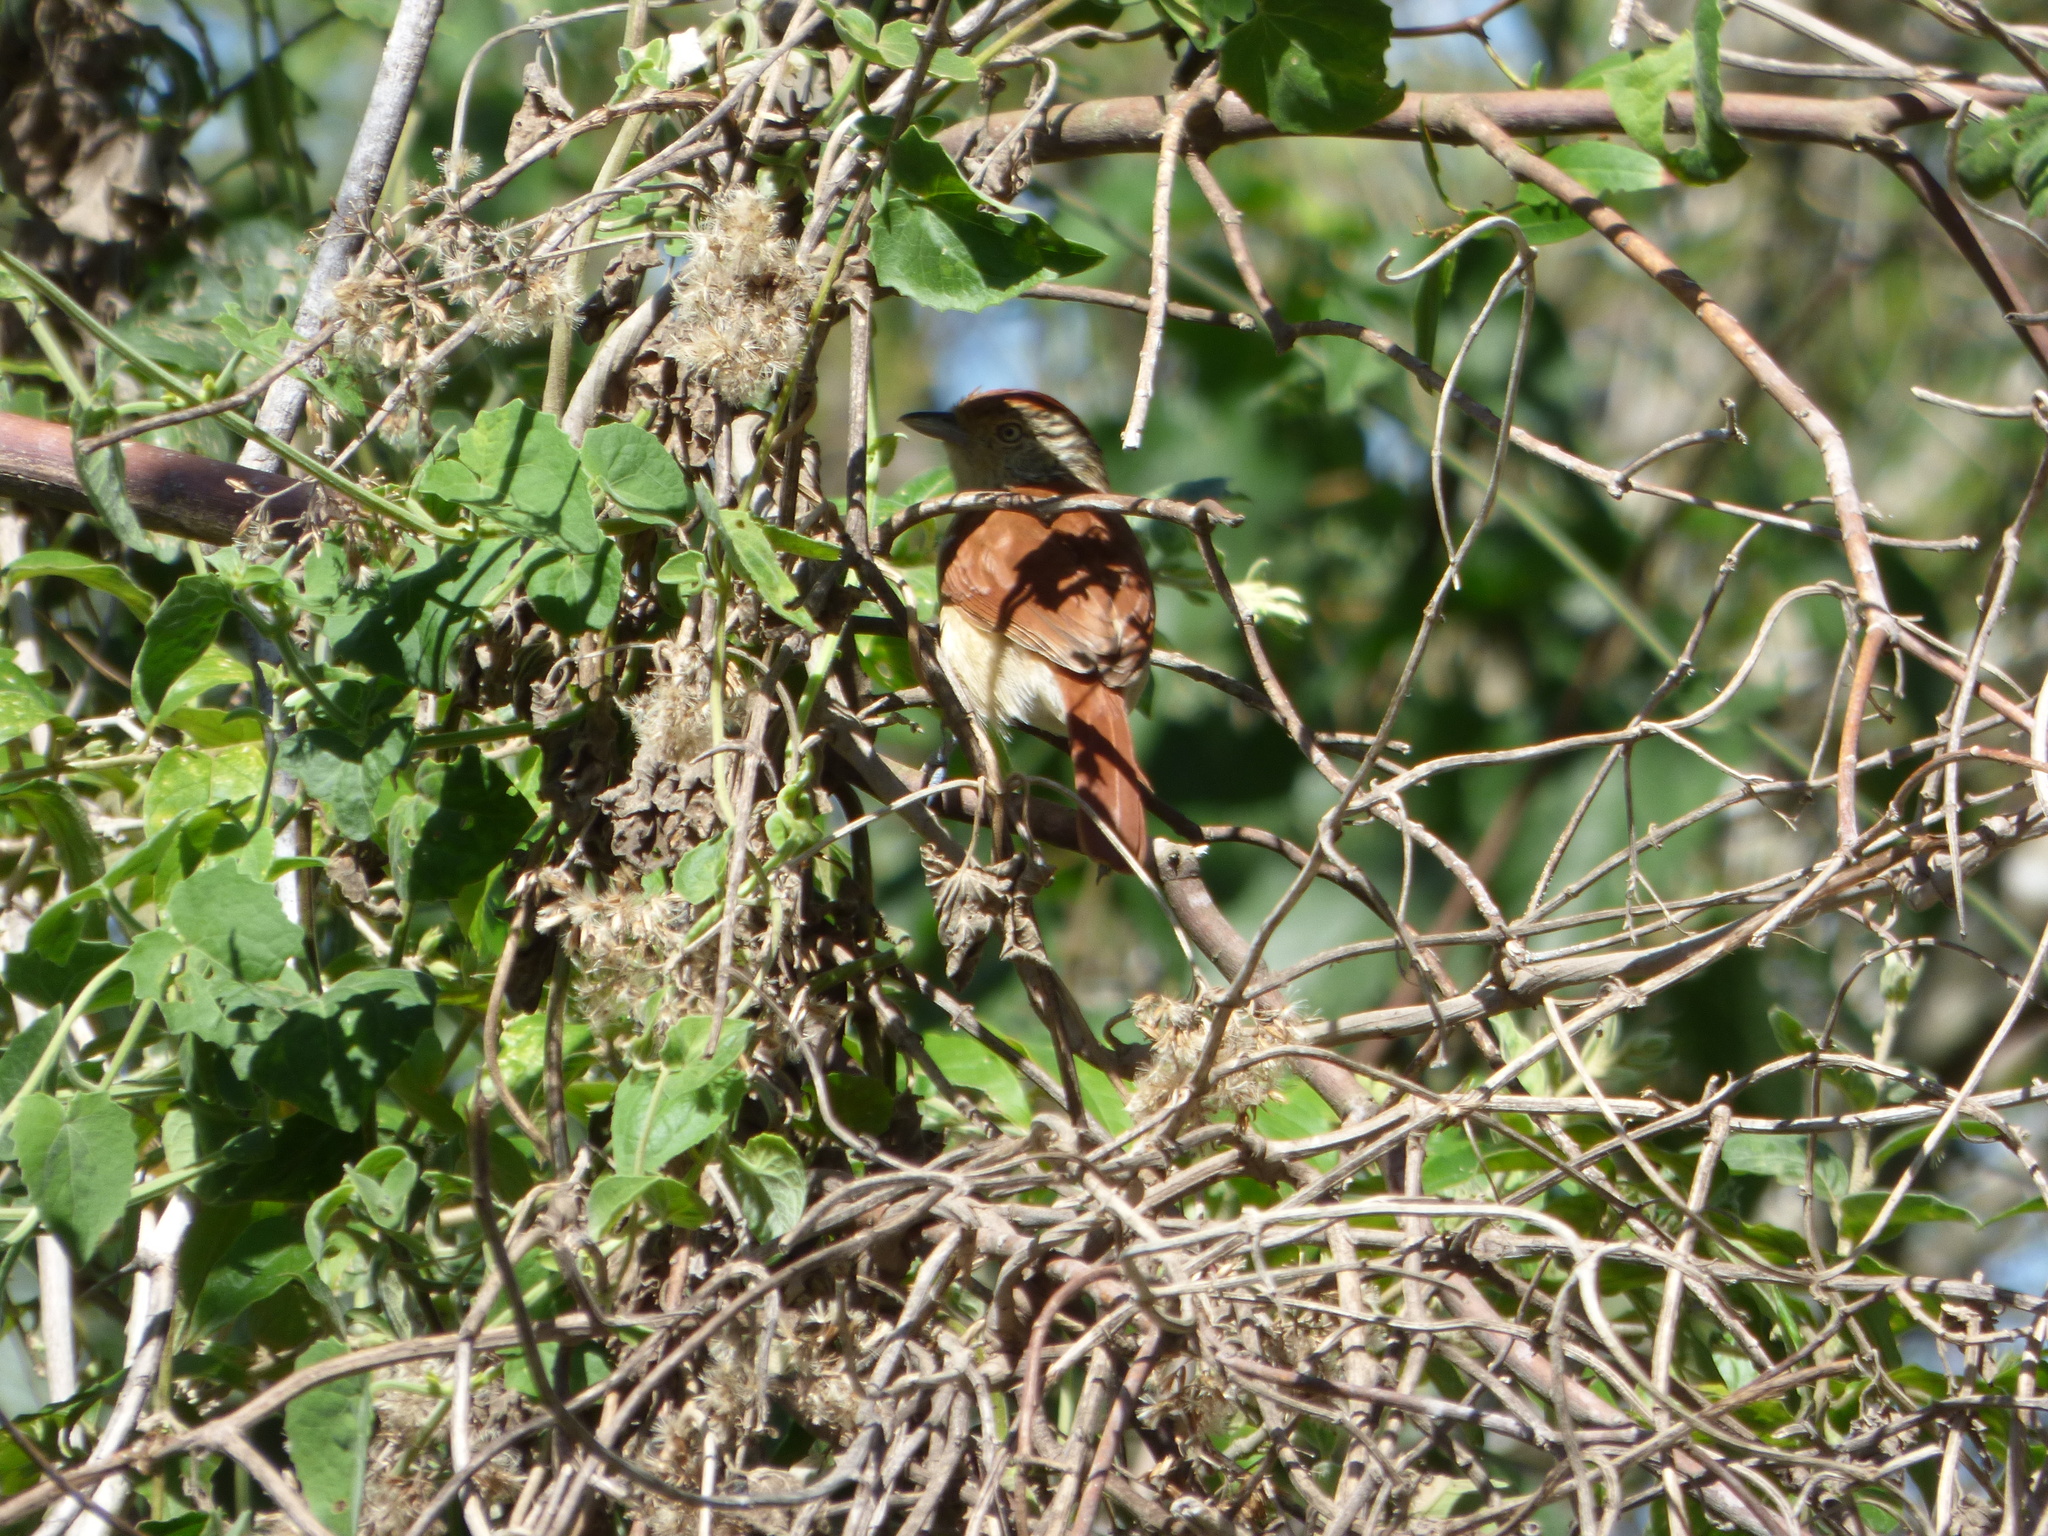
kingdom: Animalia
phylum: Chordata
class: Aves
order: Passeriformes
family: Thamnophilidae
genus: Thamnophilus
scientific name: Thamnophilus doliatus
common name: Barred antshrike
